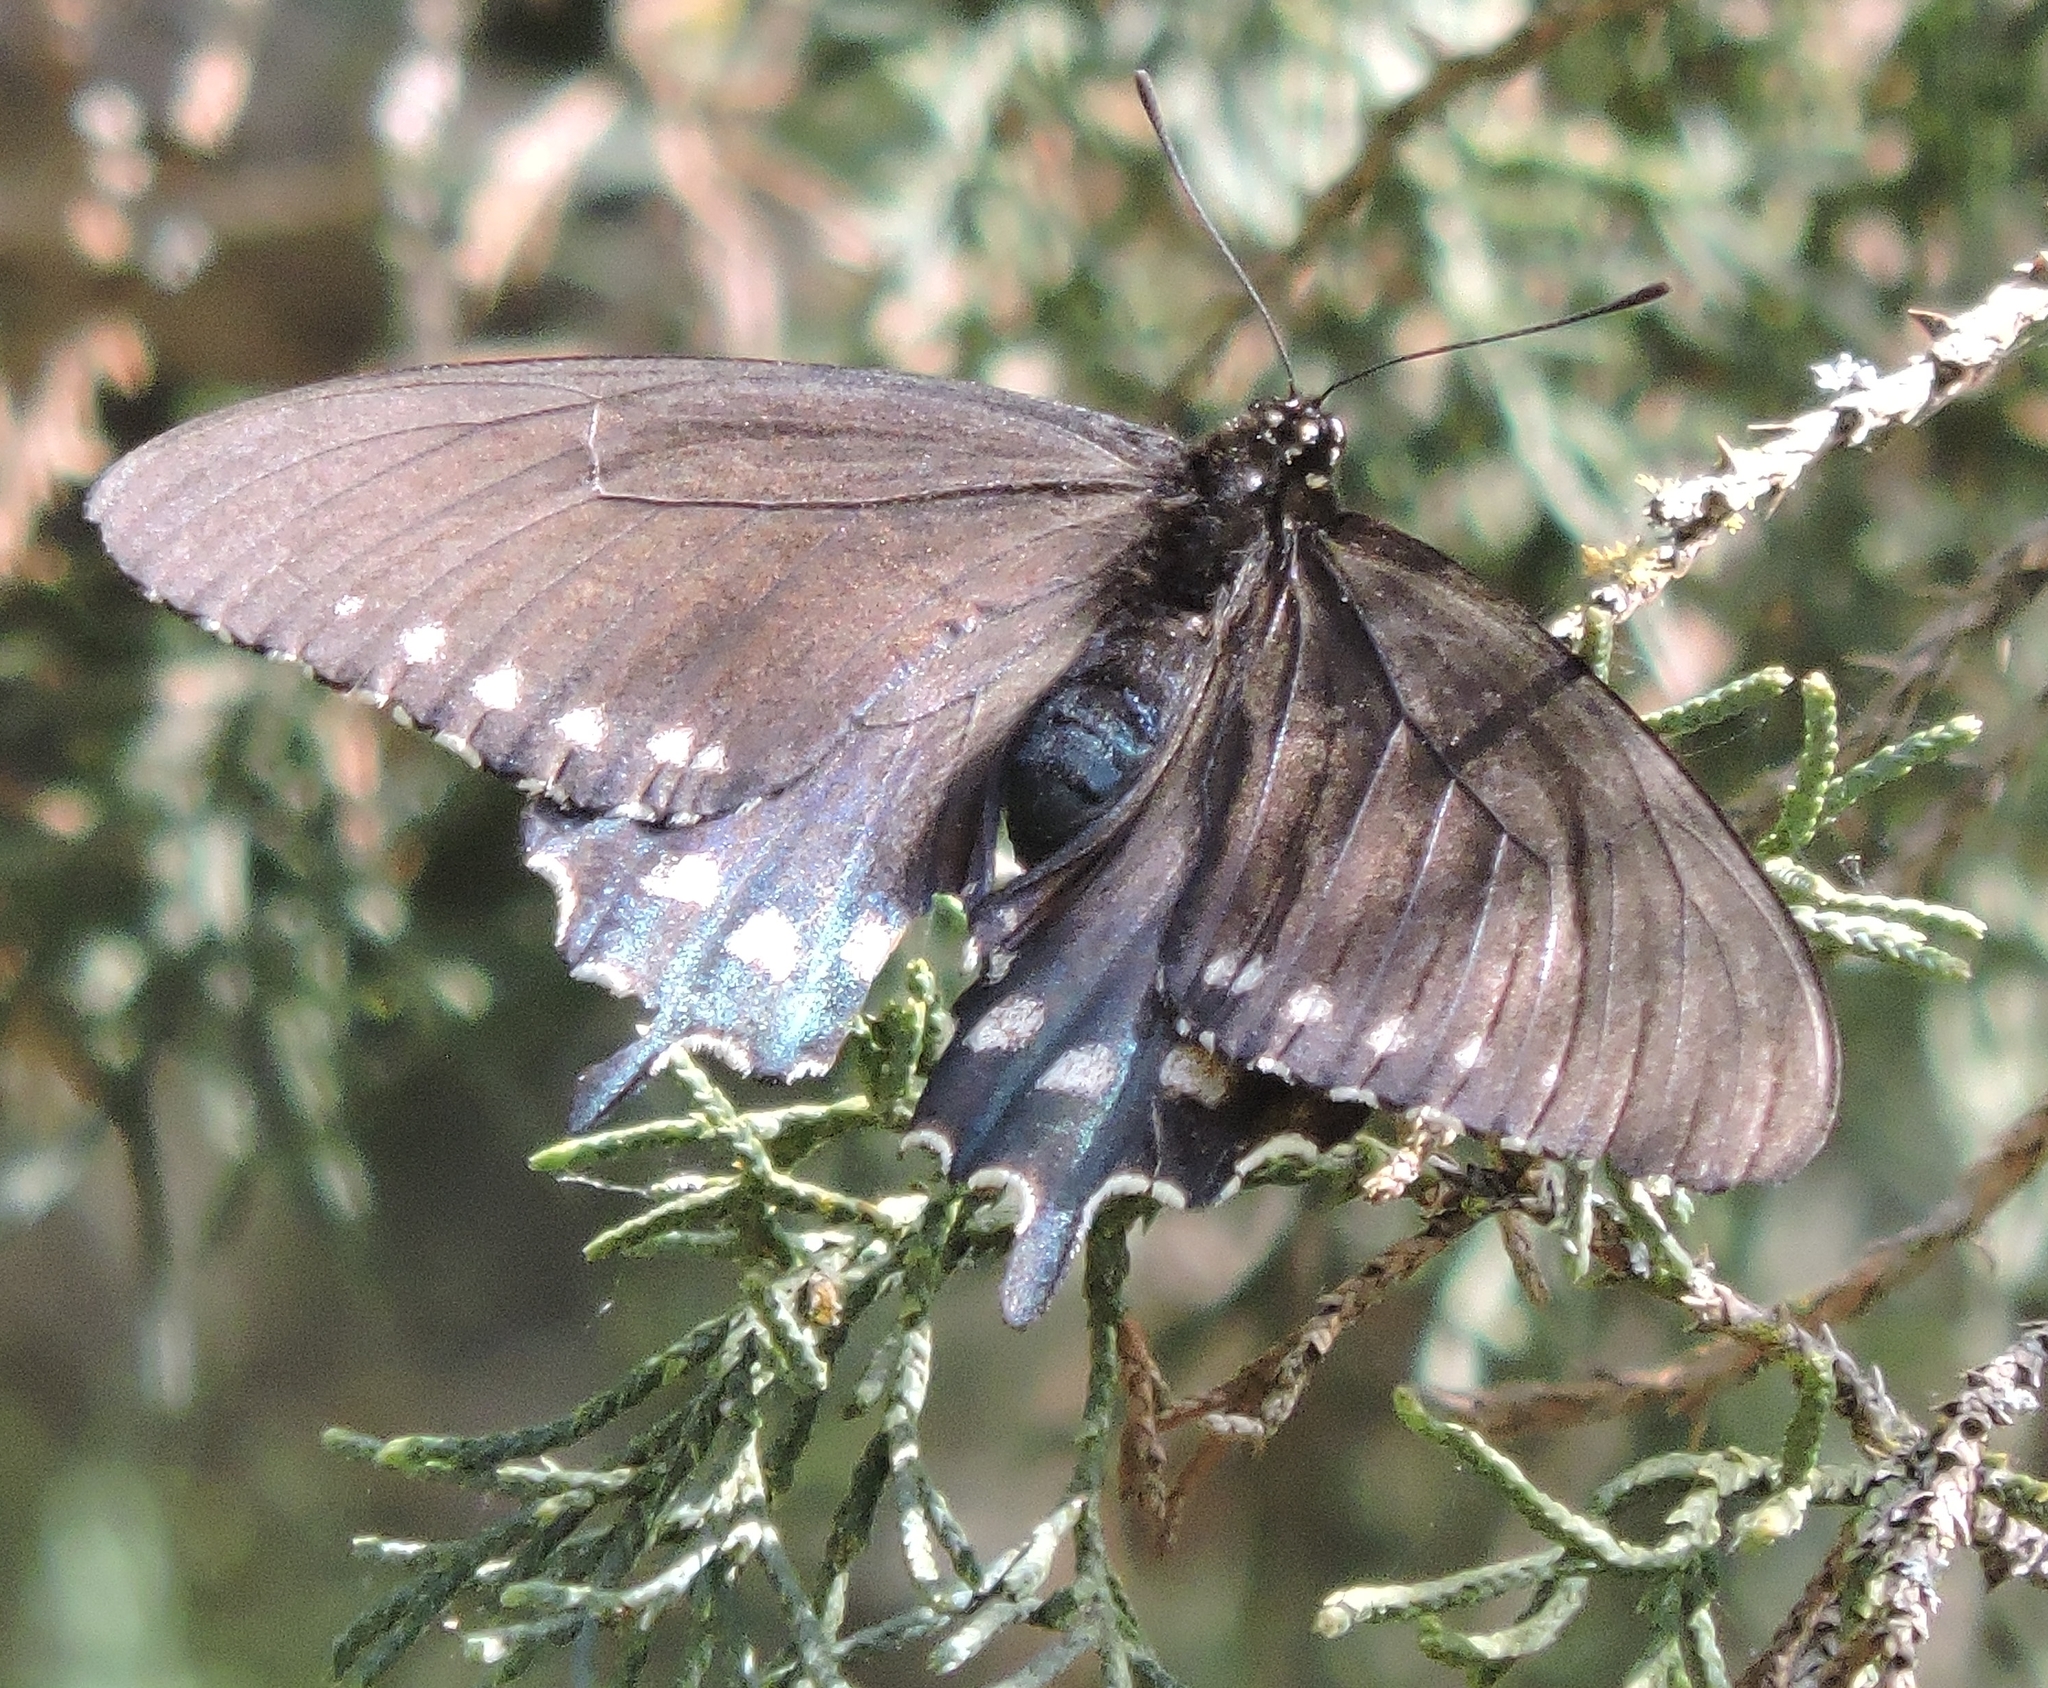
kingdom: Animalia
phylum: Arthropoda
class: Insecta
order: Lepidoptera
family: Papilionidae
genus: Battus
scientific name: Battus philenor
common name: Pipevine swallowtail
